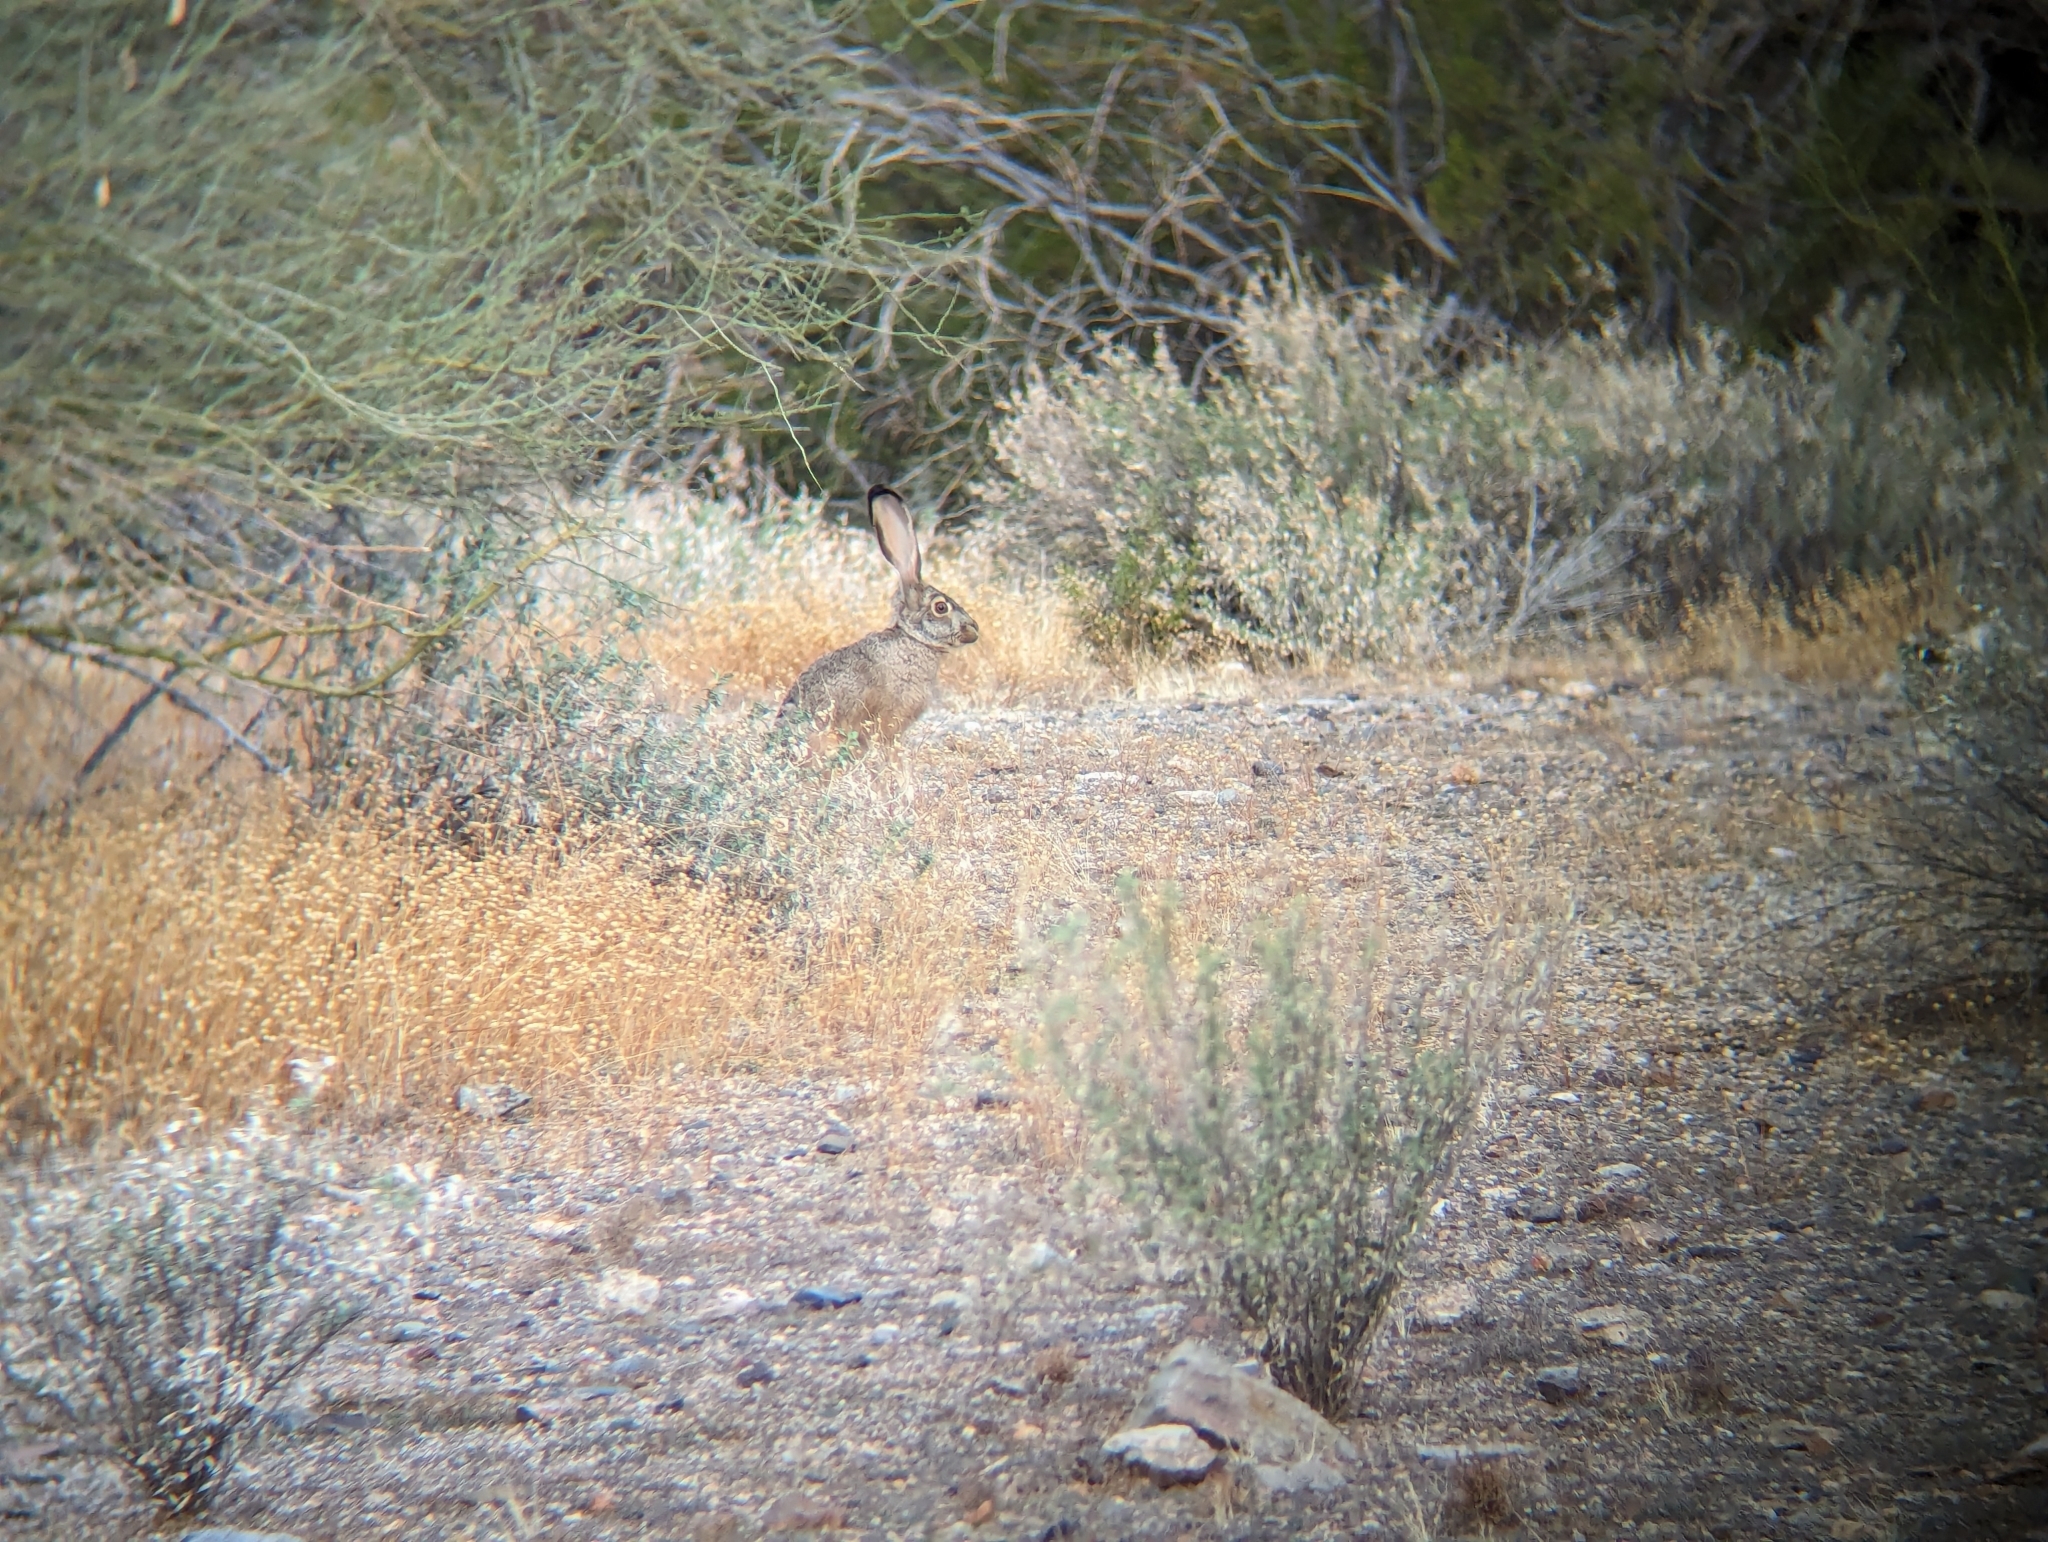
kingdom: Animalia
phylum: Chordata
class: Mammalia
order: Lagomorpha
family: Leporidae
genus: Lepus
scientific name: Lepus californicus
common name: Black-tailed jackrabbit
